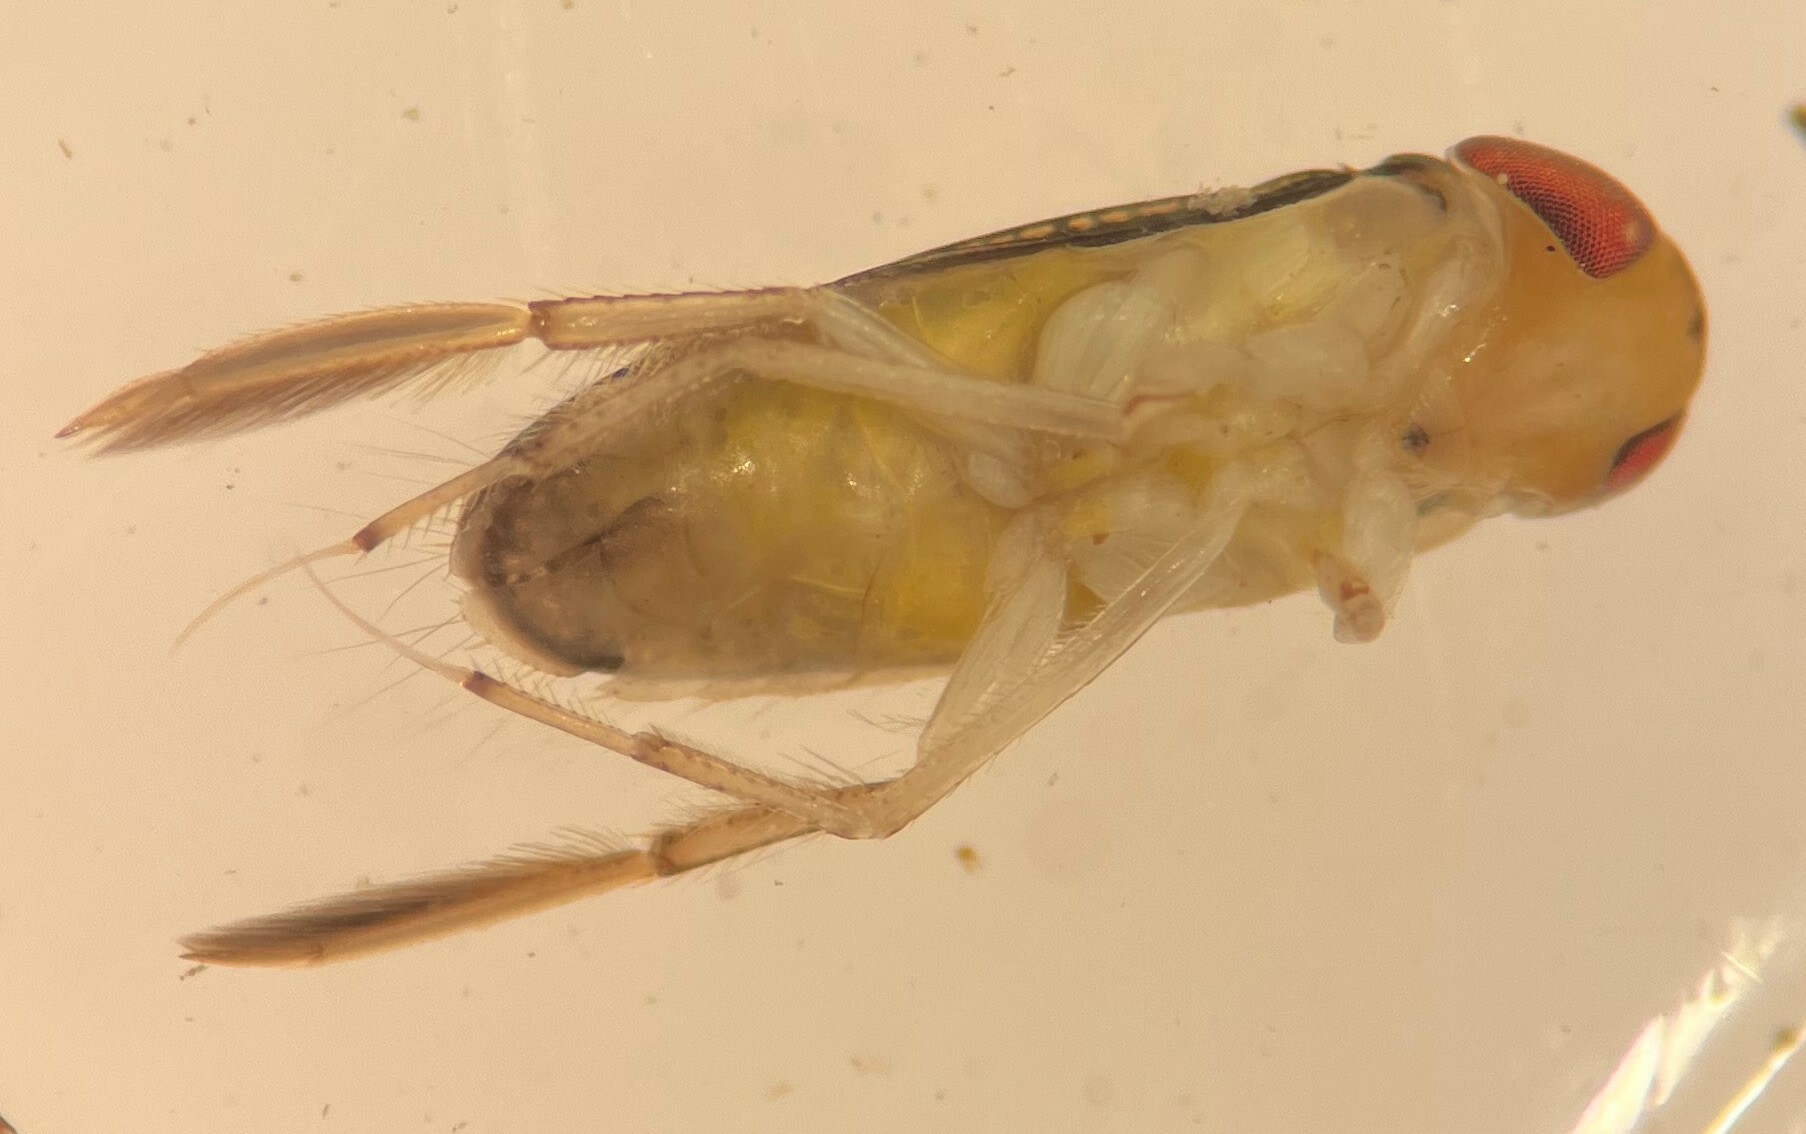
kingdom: Animalia
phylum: Arthropoda
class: Insecta
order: Hemiptera
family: Corixidae
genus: Trichocorixa
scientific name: Trichocorixa sexcincta
